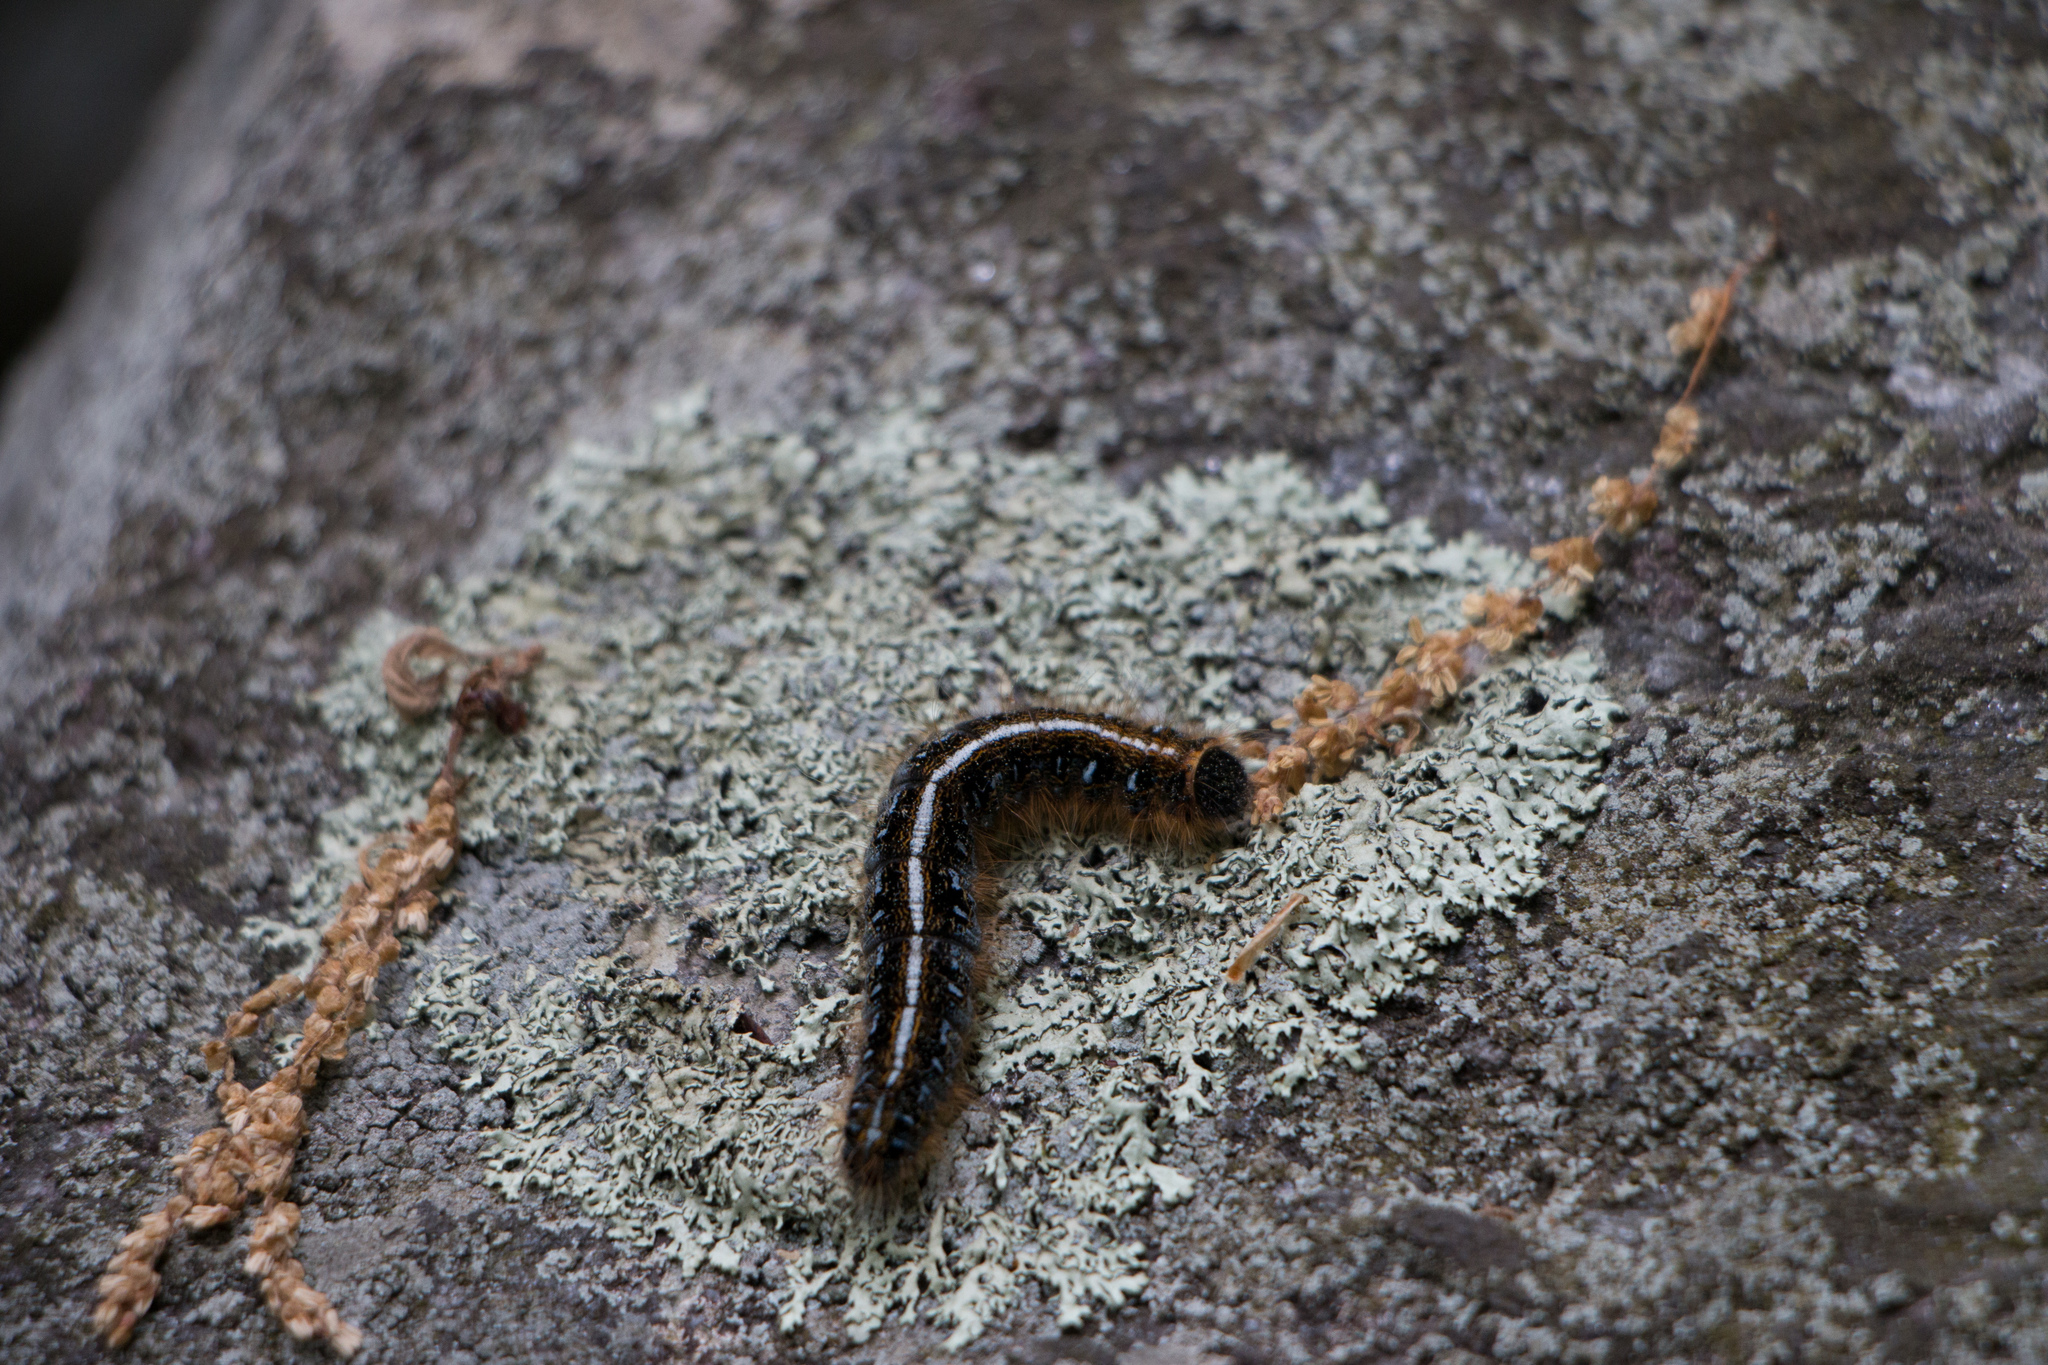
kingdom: Animalia
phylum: Arthropoda
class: Insecta
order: Lepidoptera
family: Lasiocampidae
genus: Malacosoma
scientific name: Malacosoma americana
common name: Eastern tent caterpillar moth
